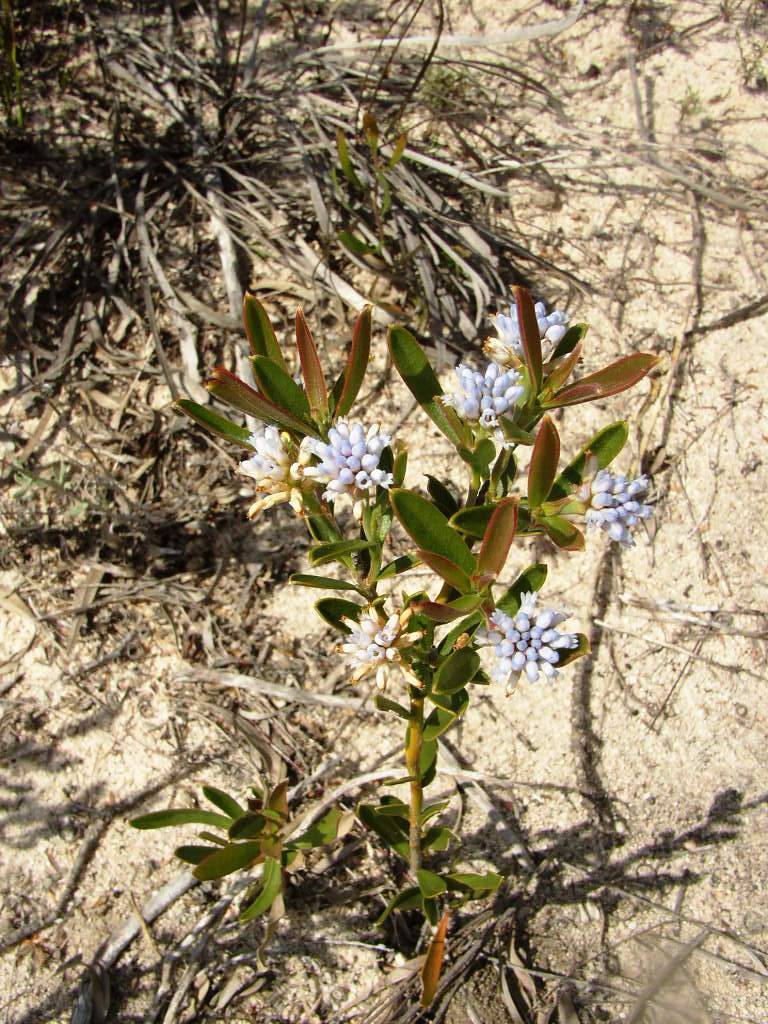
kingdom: Plantae
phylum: Tracheophyta
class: Magnoliopsida
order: Proteales
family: Proteaceae
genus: Conospermum
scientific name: Conospermum nervosum
